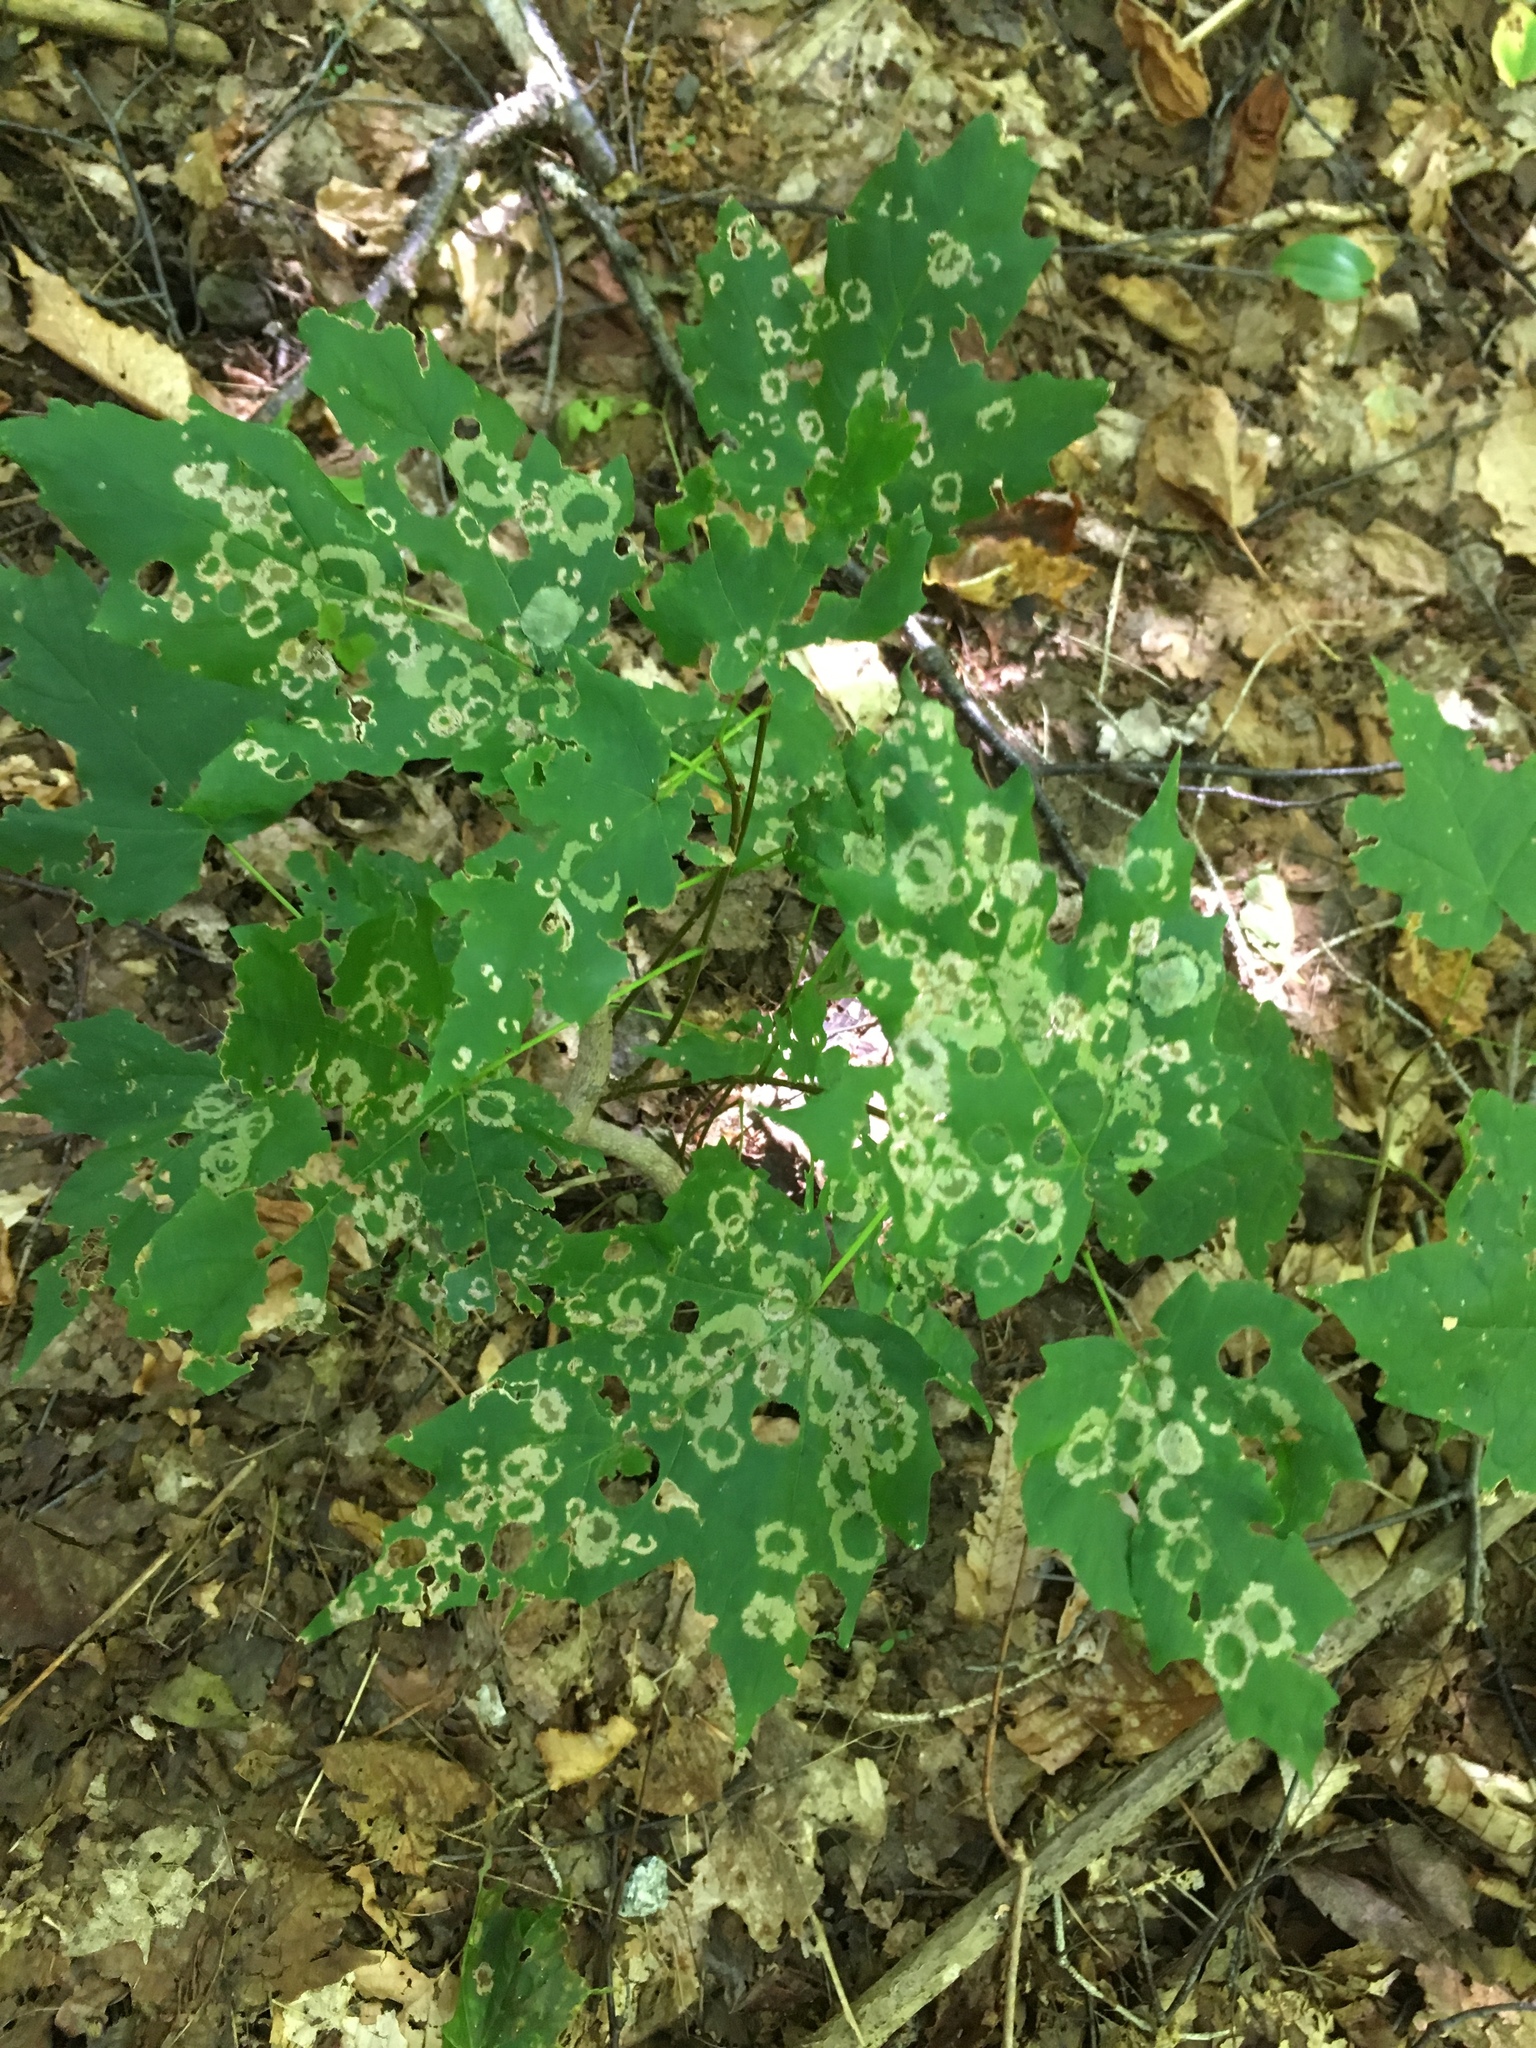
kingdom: Animalia
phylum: Arthropoda
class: Insecta
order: Lepidoptera
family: Incurvariidae
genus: Paraclemensia
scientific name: Paraclemensia acerifoliella
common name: Maple leafcutter
